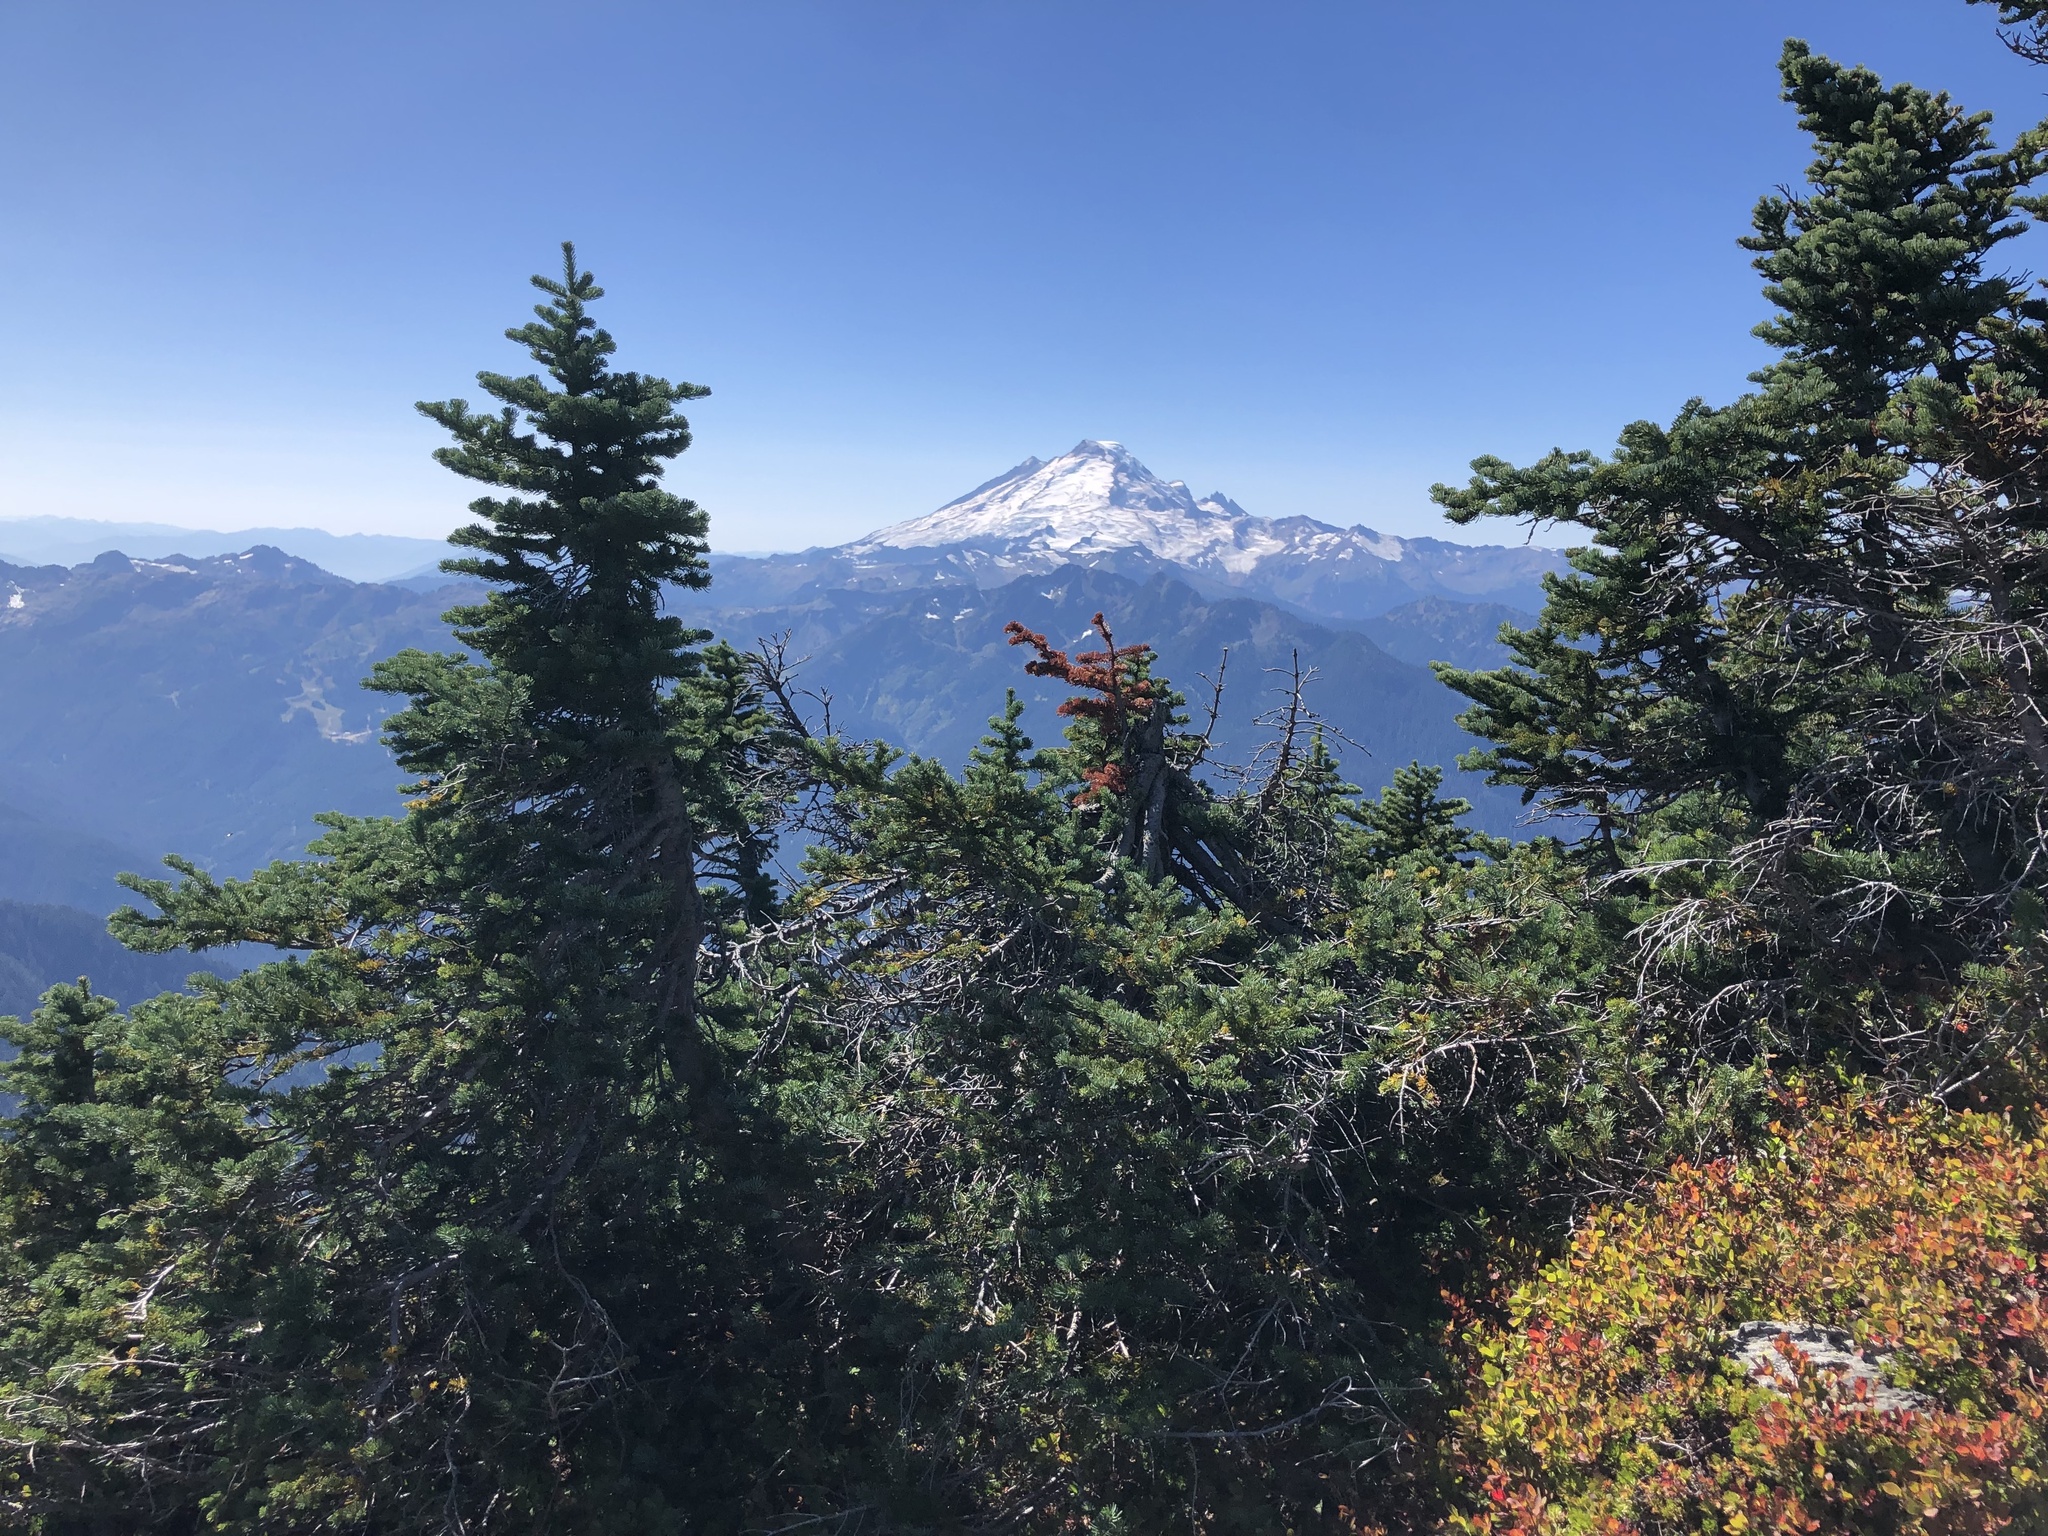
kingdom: Plantae
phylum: Tracheophyta
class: Pinopsida
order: Pinales
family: Pinaceae
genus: Abies
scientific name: Abies lasiocarpa
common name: Subalpine fir
